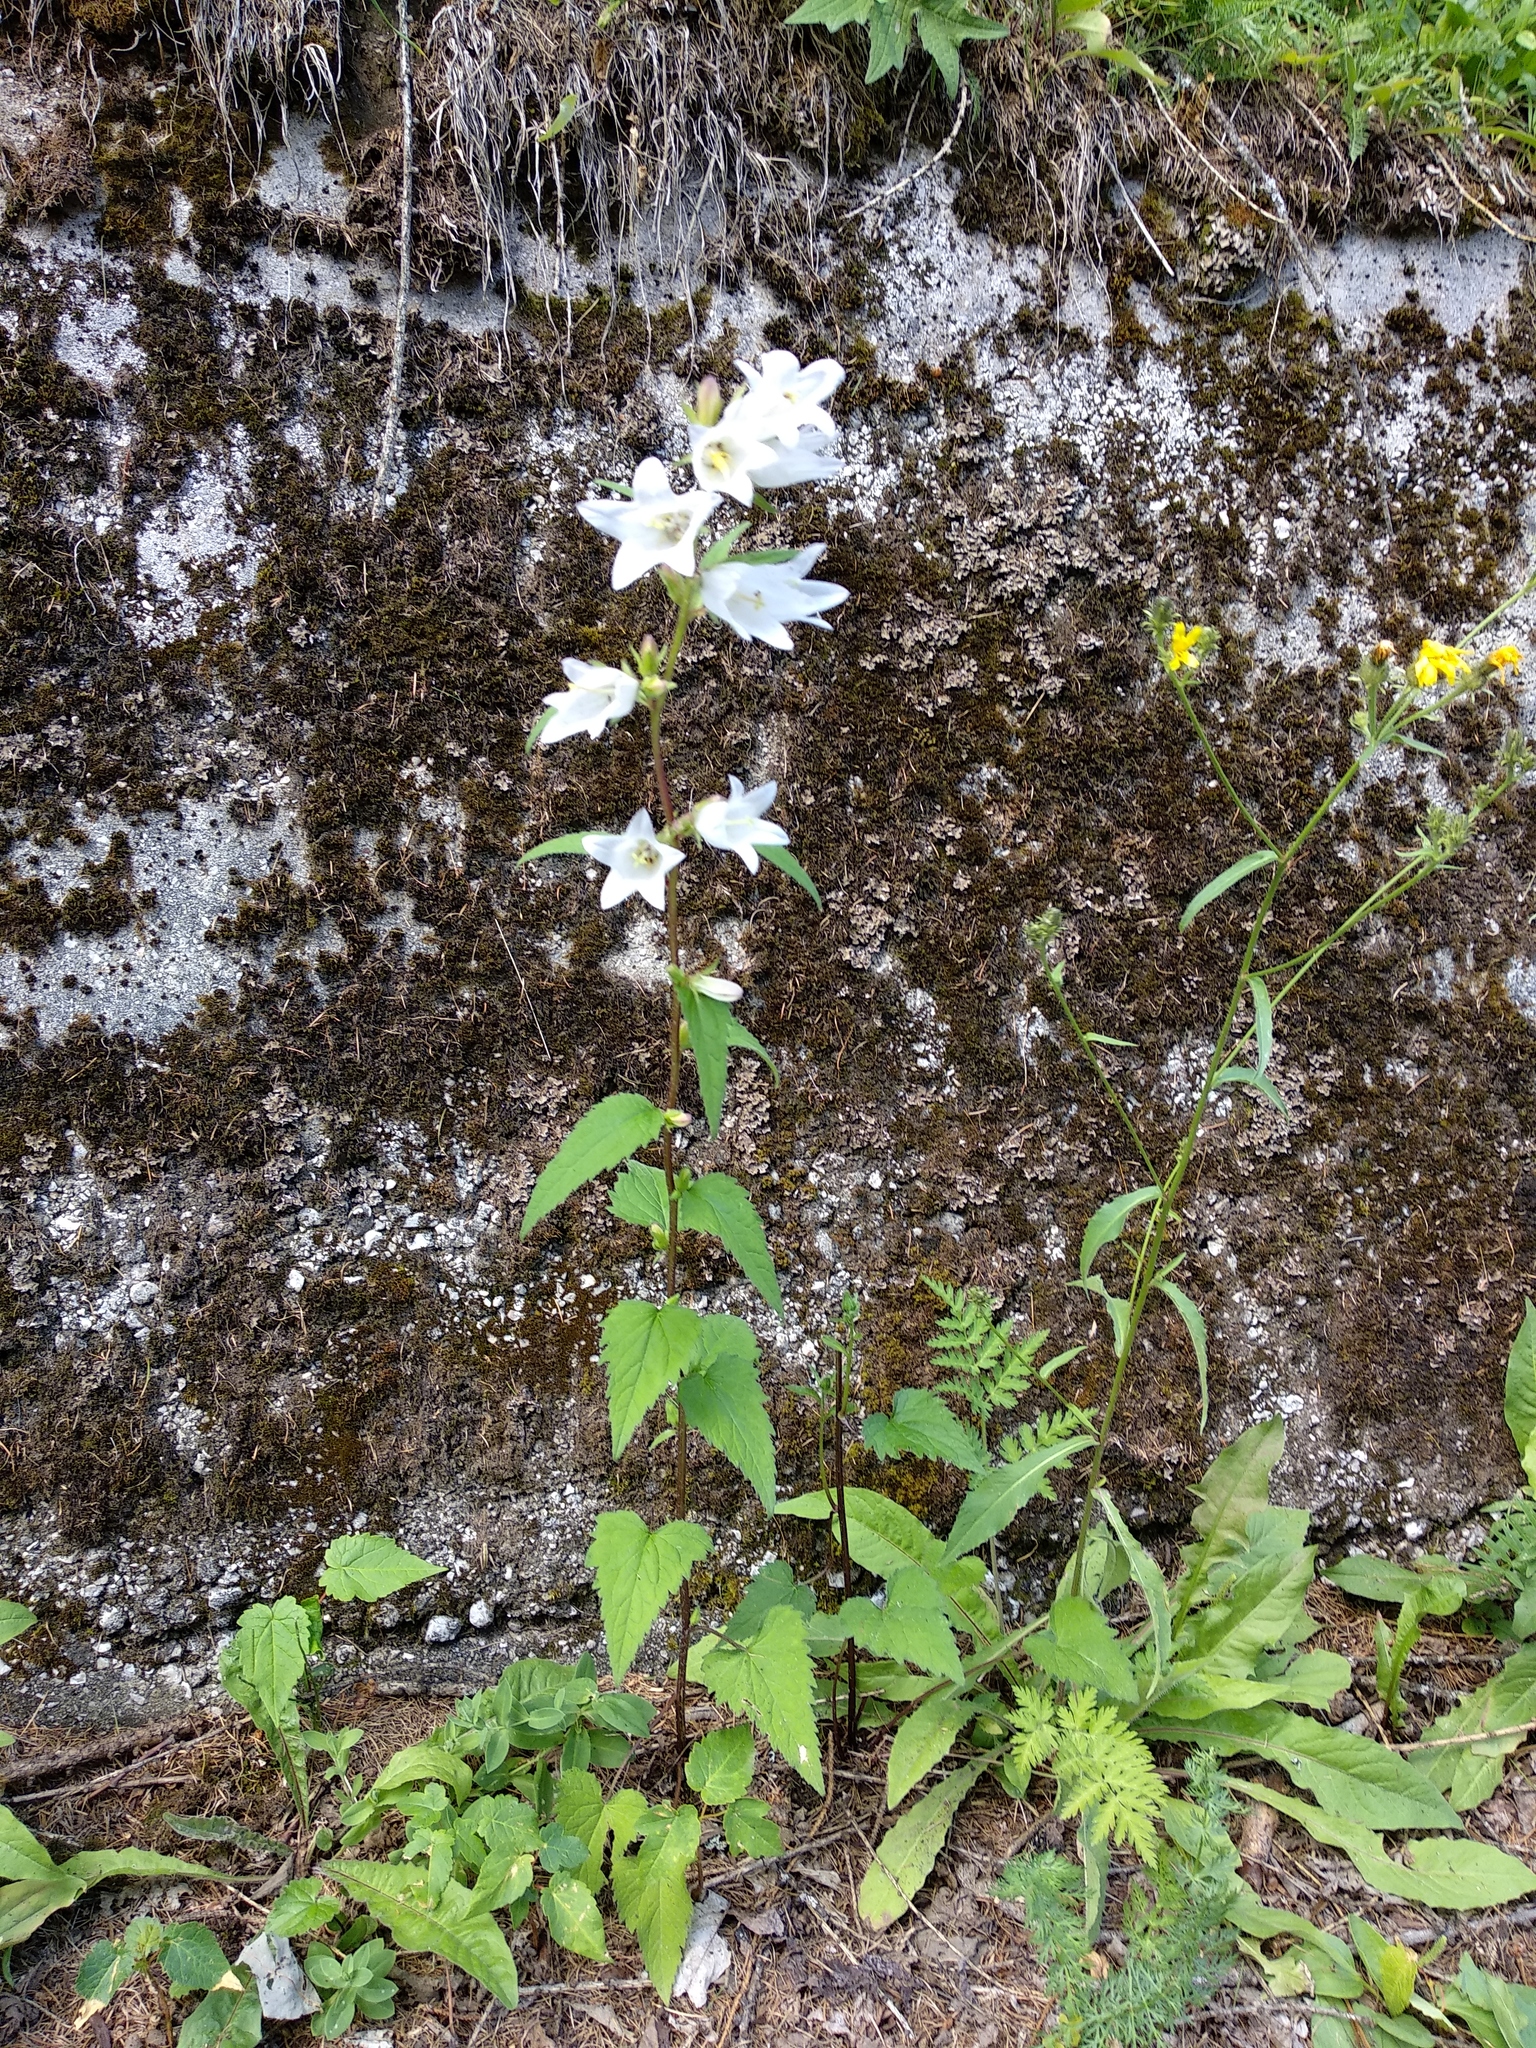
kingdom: Plantae
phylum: Tracheophyta
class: Magnoliopsida
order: Asterales
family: Campanulaceae
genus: Campanula
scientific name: Campanula trachelium
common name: Nettle-leaved bellflower
